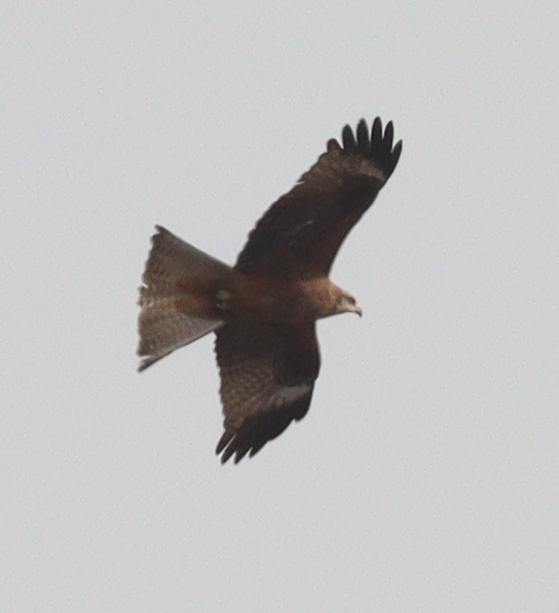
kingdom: Animalia
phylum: Chordata
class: Aves
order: Accipitriformes
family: Accipitridae
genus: Milvus
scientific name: Milvus migrans
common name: Black kite
